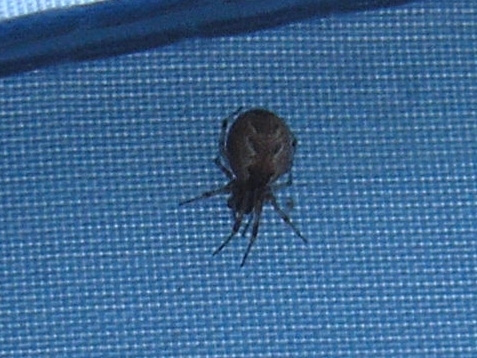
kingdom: Animalia
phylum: Arthropoda
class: Arachnida
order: Araneae
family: Araneidae
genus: Zygiella
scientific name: Zygiella x-notata
